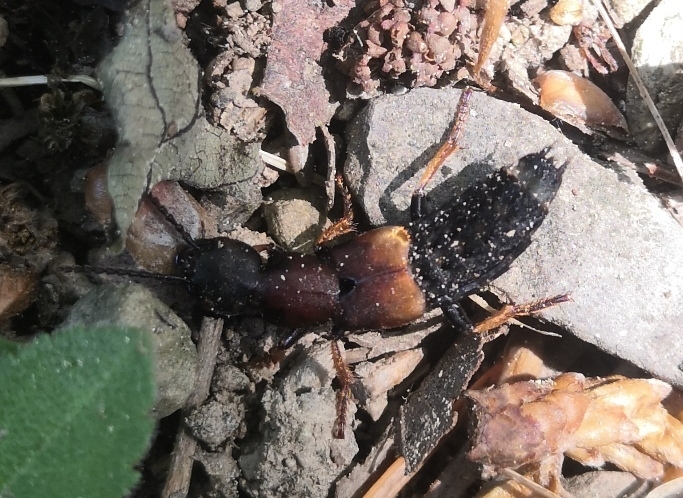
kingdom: Animalia
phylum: Arthropoda
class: Insecta
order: Coleoptera
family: Staphylinidae
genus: Dinothenarus
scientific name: Dinothenarus fossor
